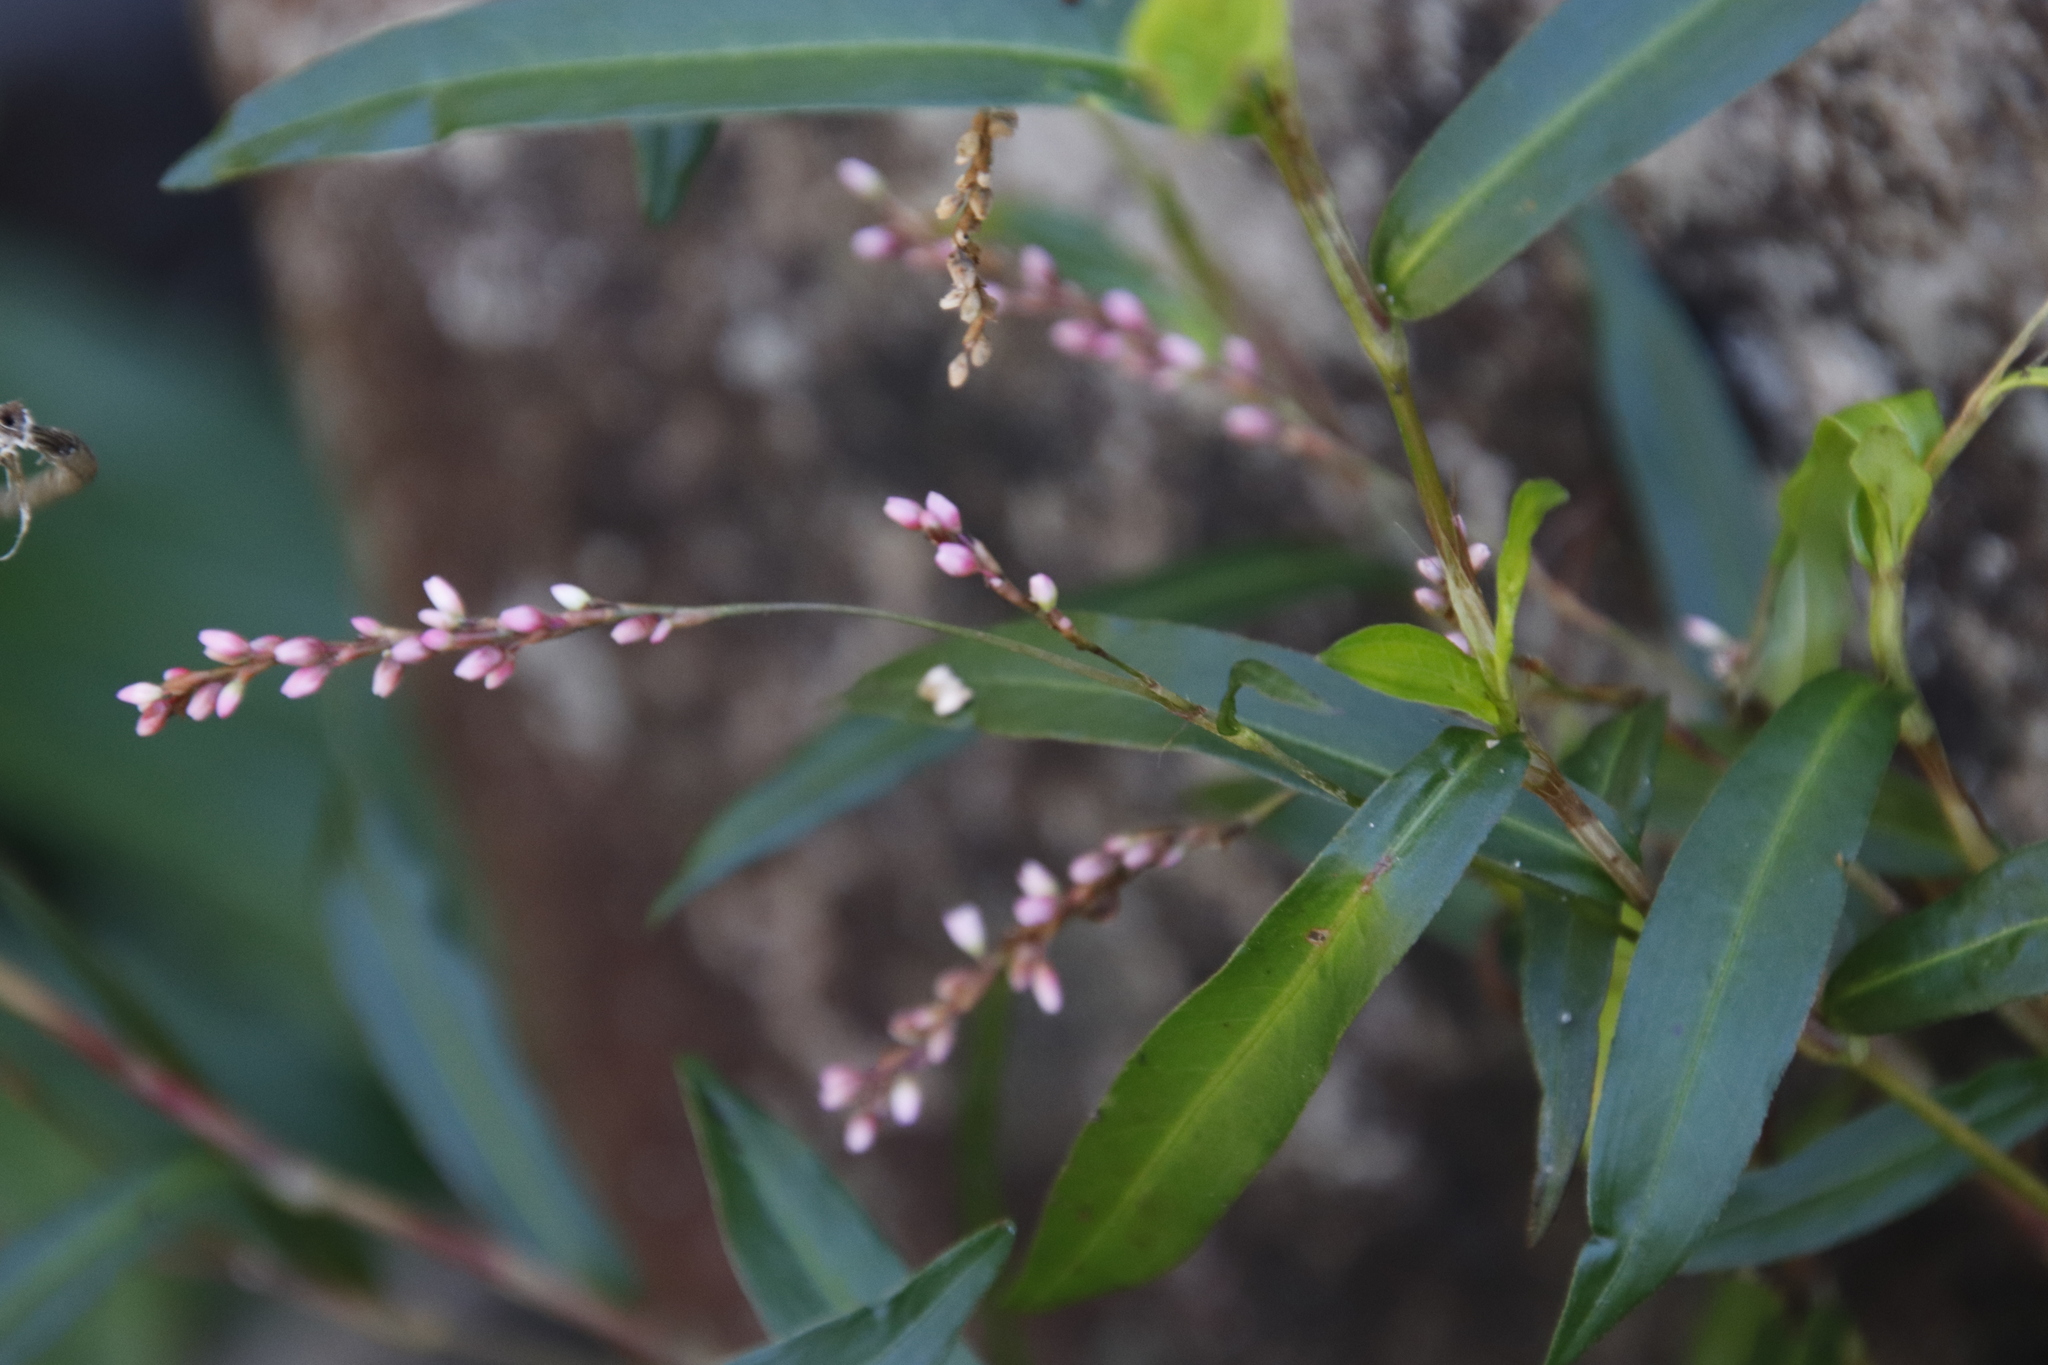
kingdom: Plantae
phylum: Tracheophyta
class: Magnoliopsida
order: Caryophyllales
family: Polygonaceae
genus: Persicaria
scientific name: Persicaria decipiens
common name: Willow-weed
